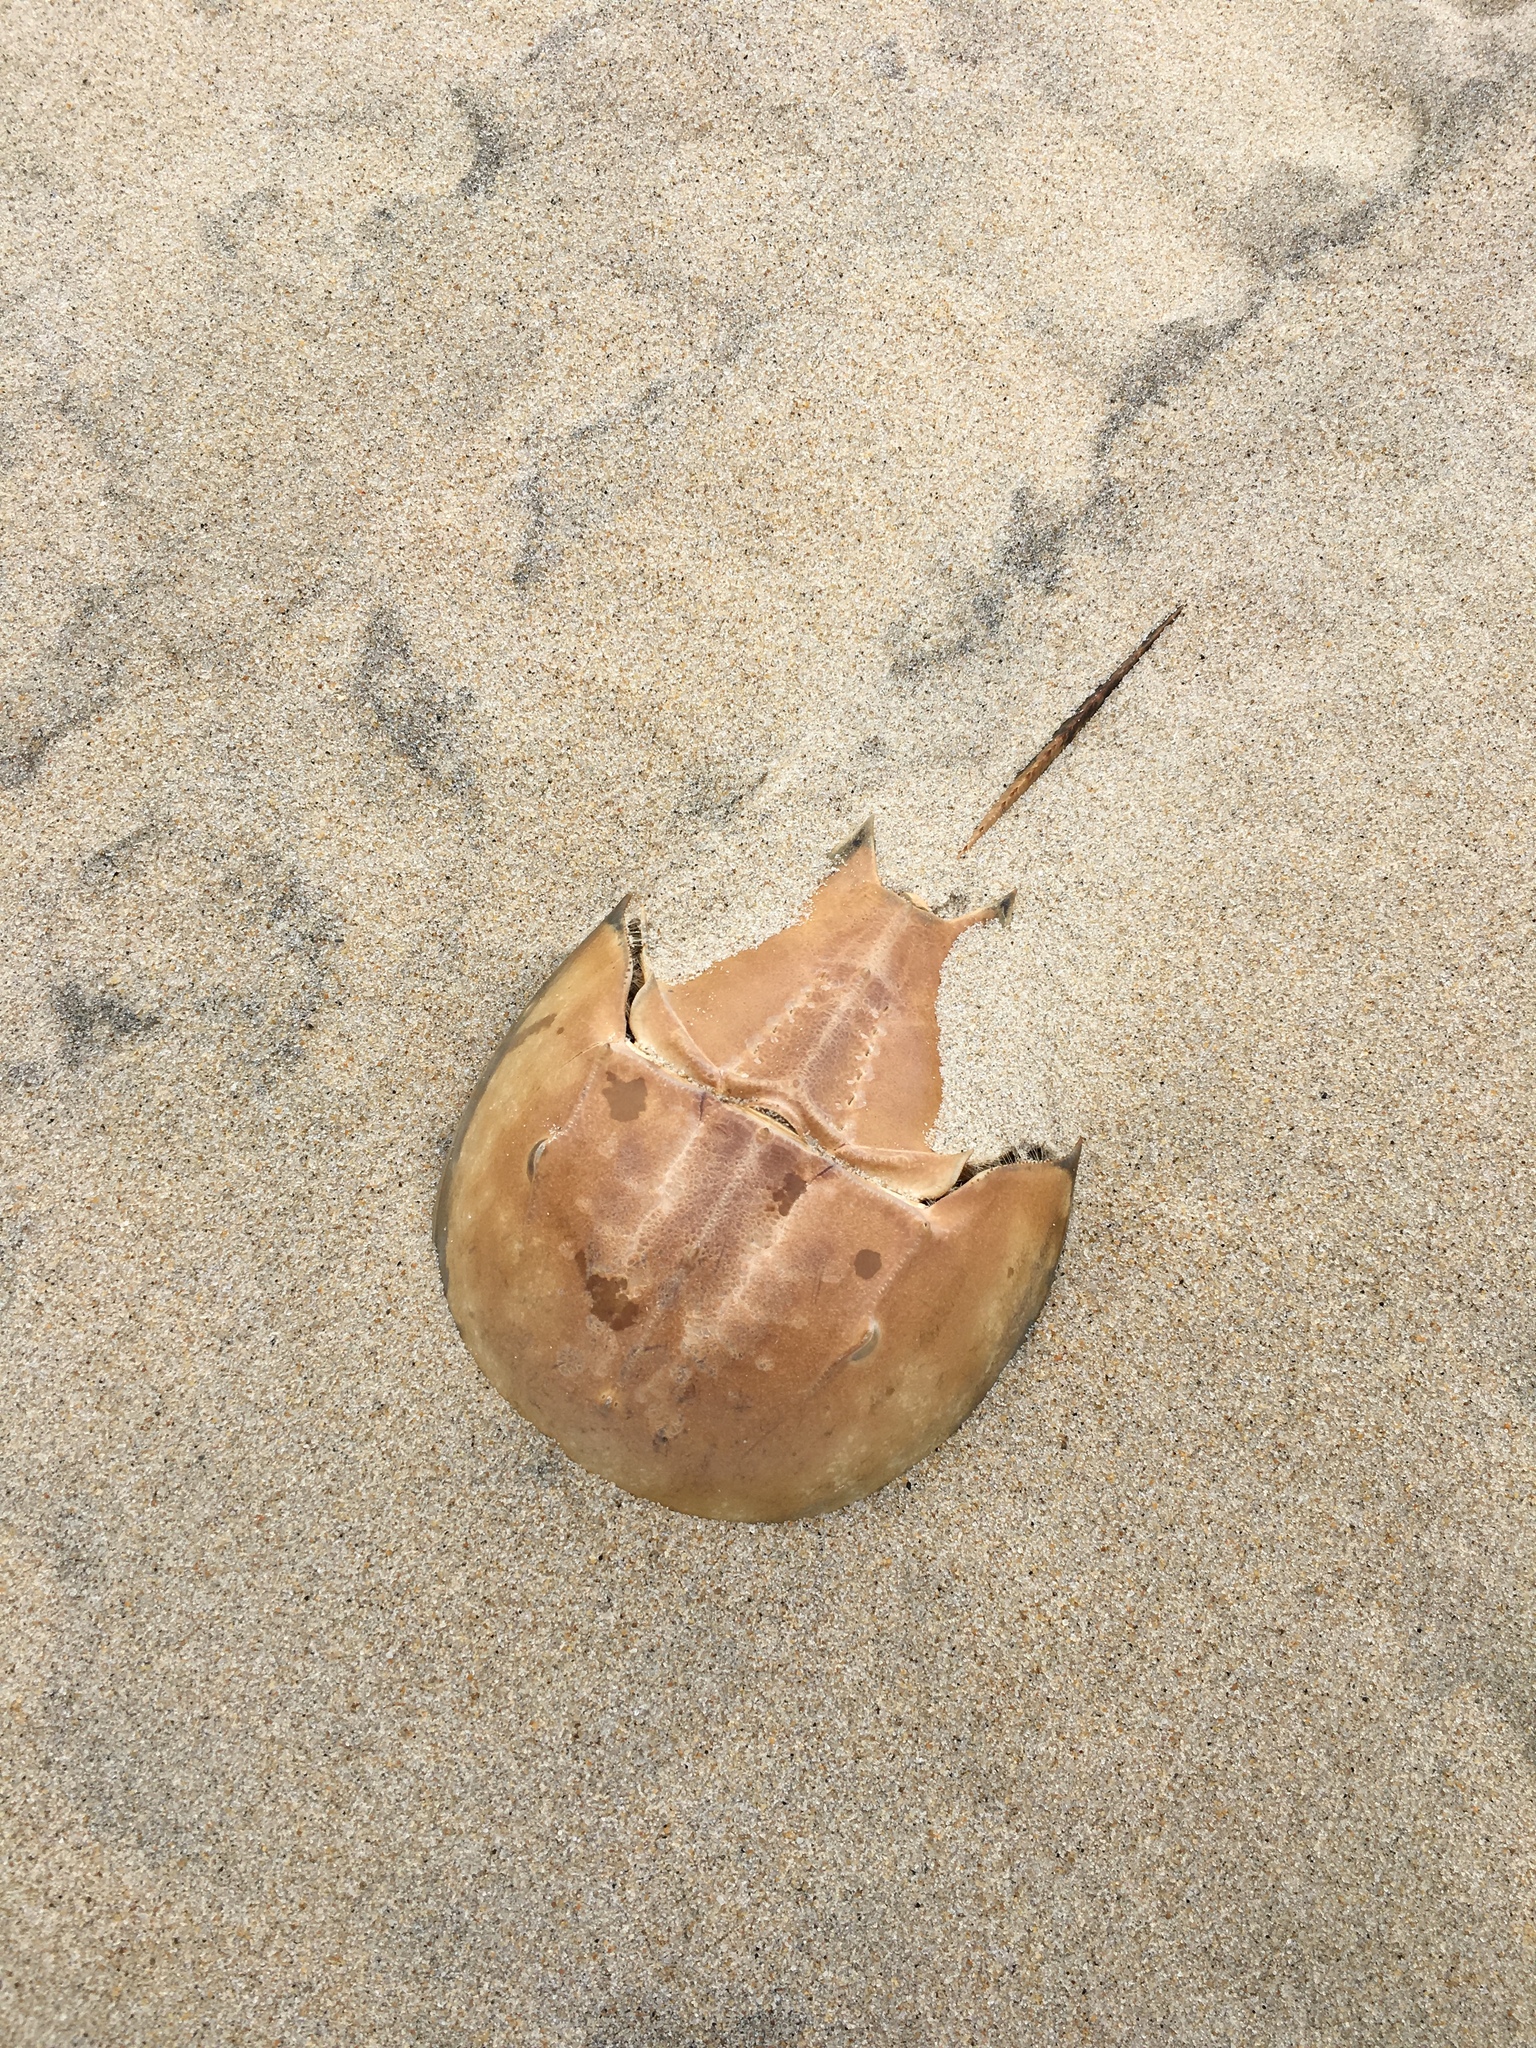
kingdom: Animalia
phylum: Arthropoda
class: Merostomata
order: Xiphosurida
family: Limulidae
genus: Limulus
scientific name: Limulus polyphemus
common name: Horseshoe crab
